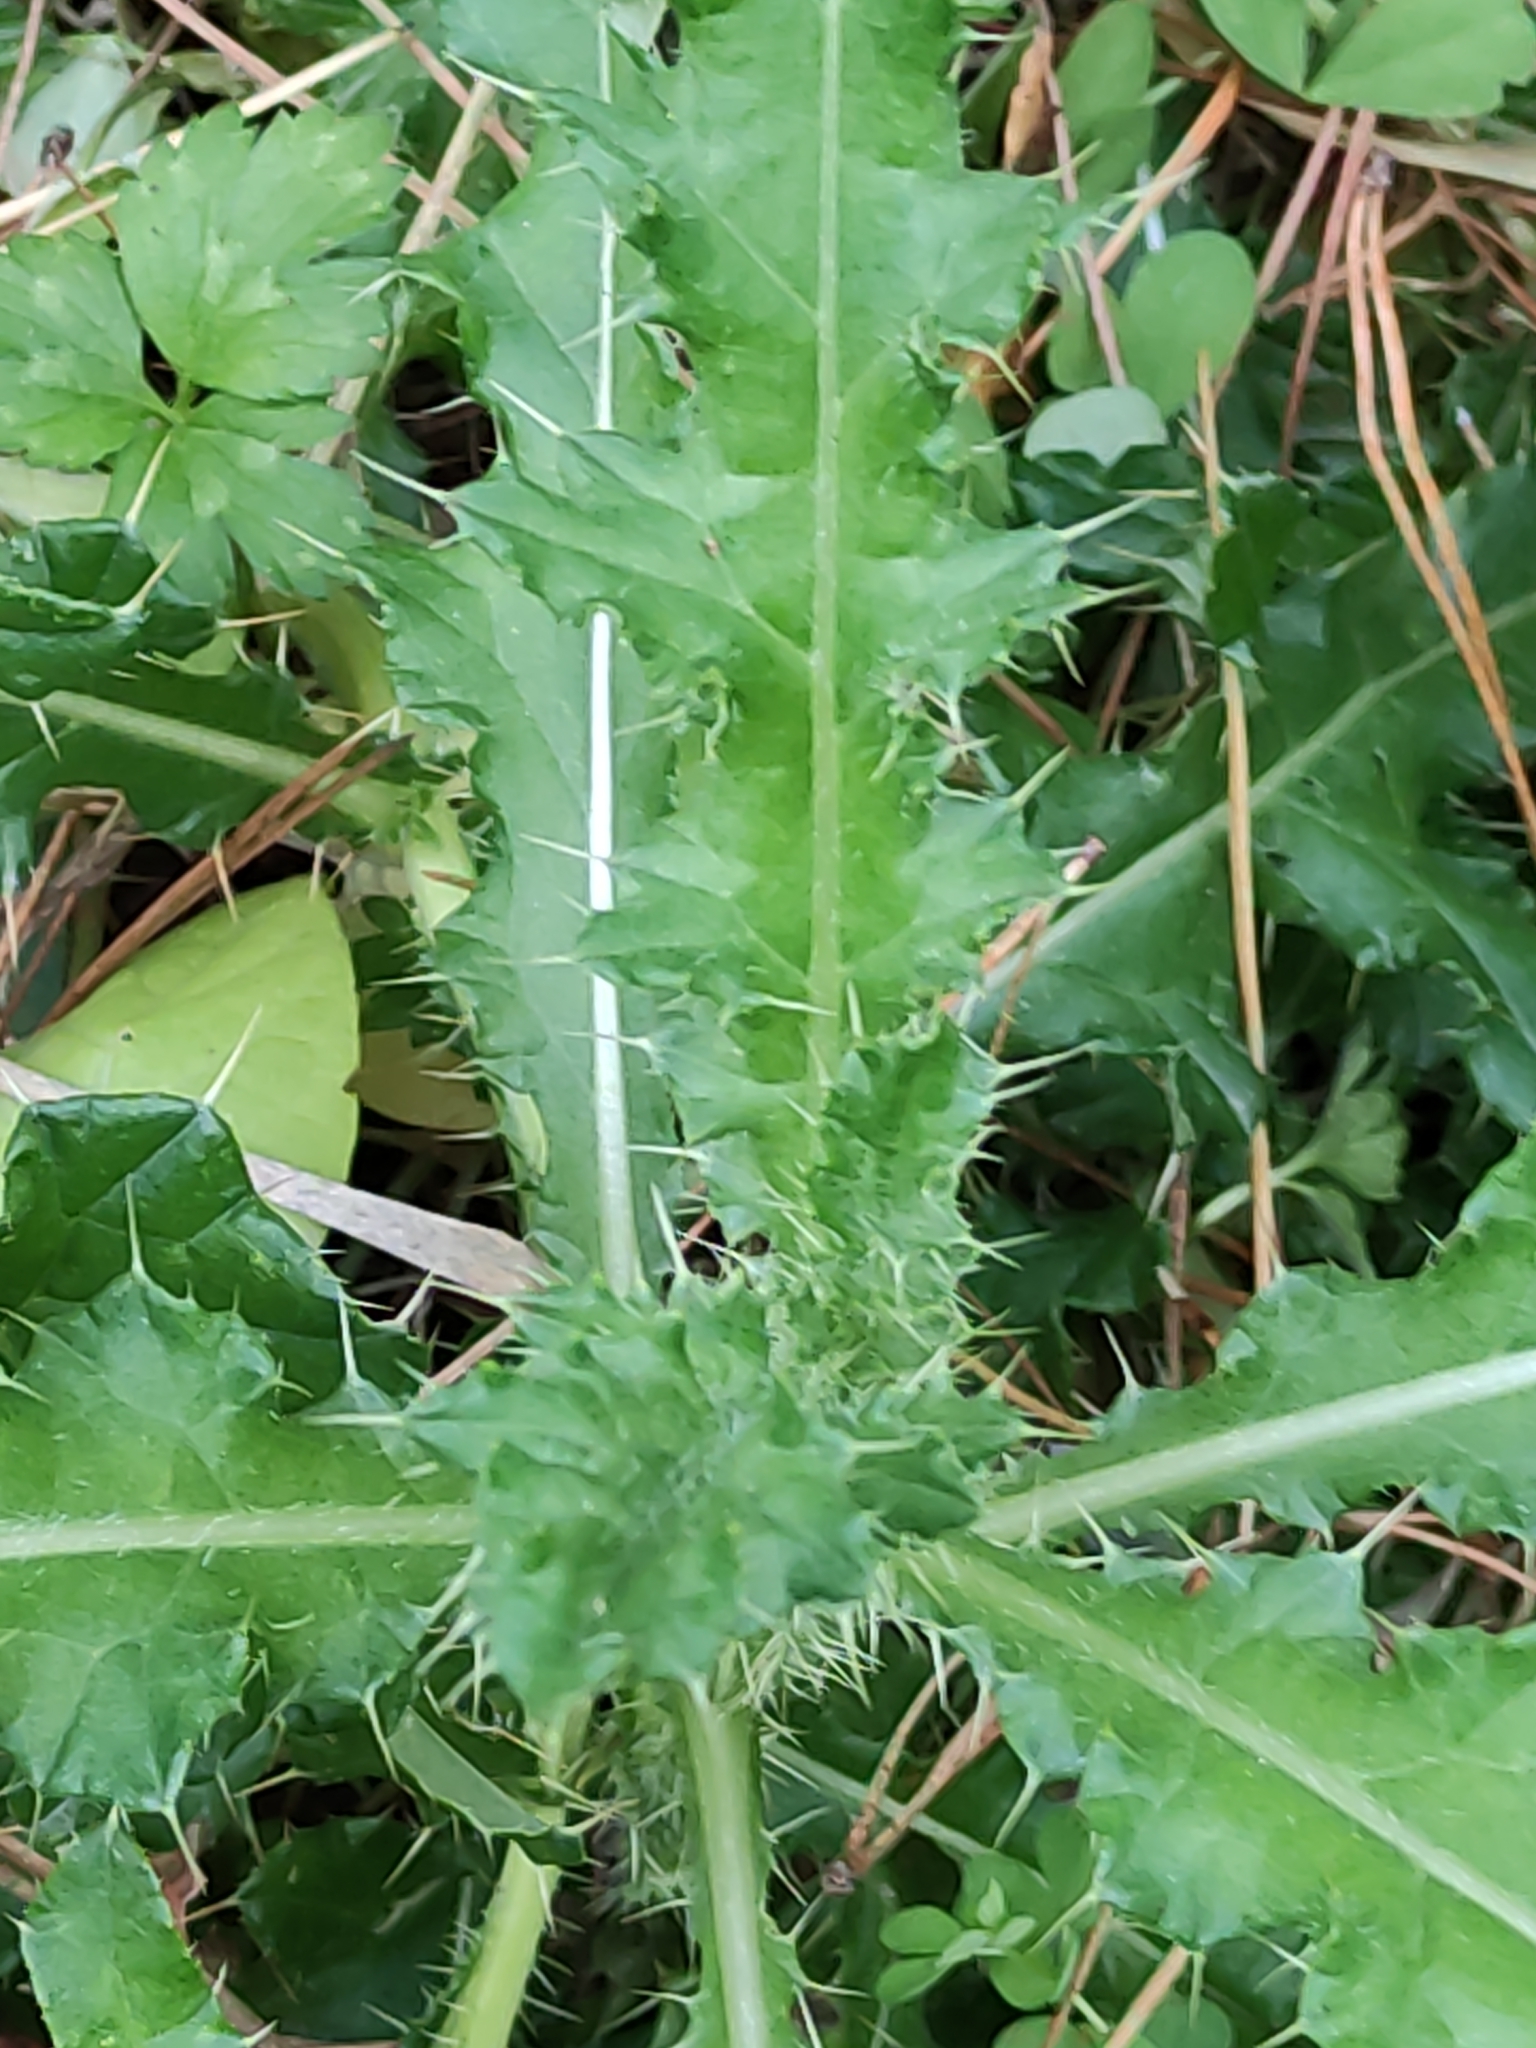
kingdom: Plantae
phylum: Tracheophyta
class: Magnoliopsida
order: Asterales
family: Asteraceae
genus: Cirsium
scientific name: Cirsium arvense
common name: Creeping thistle
